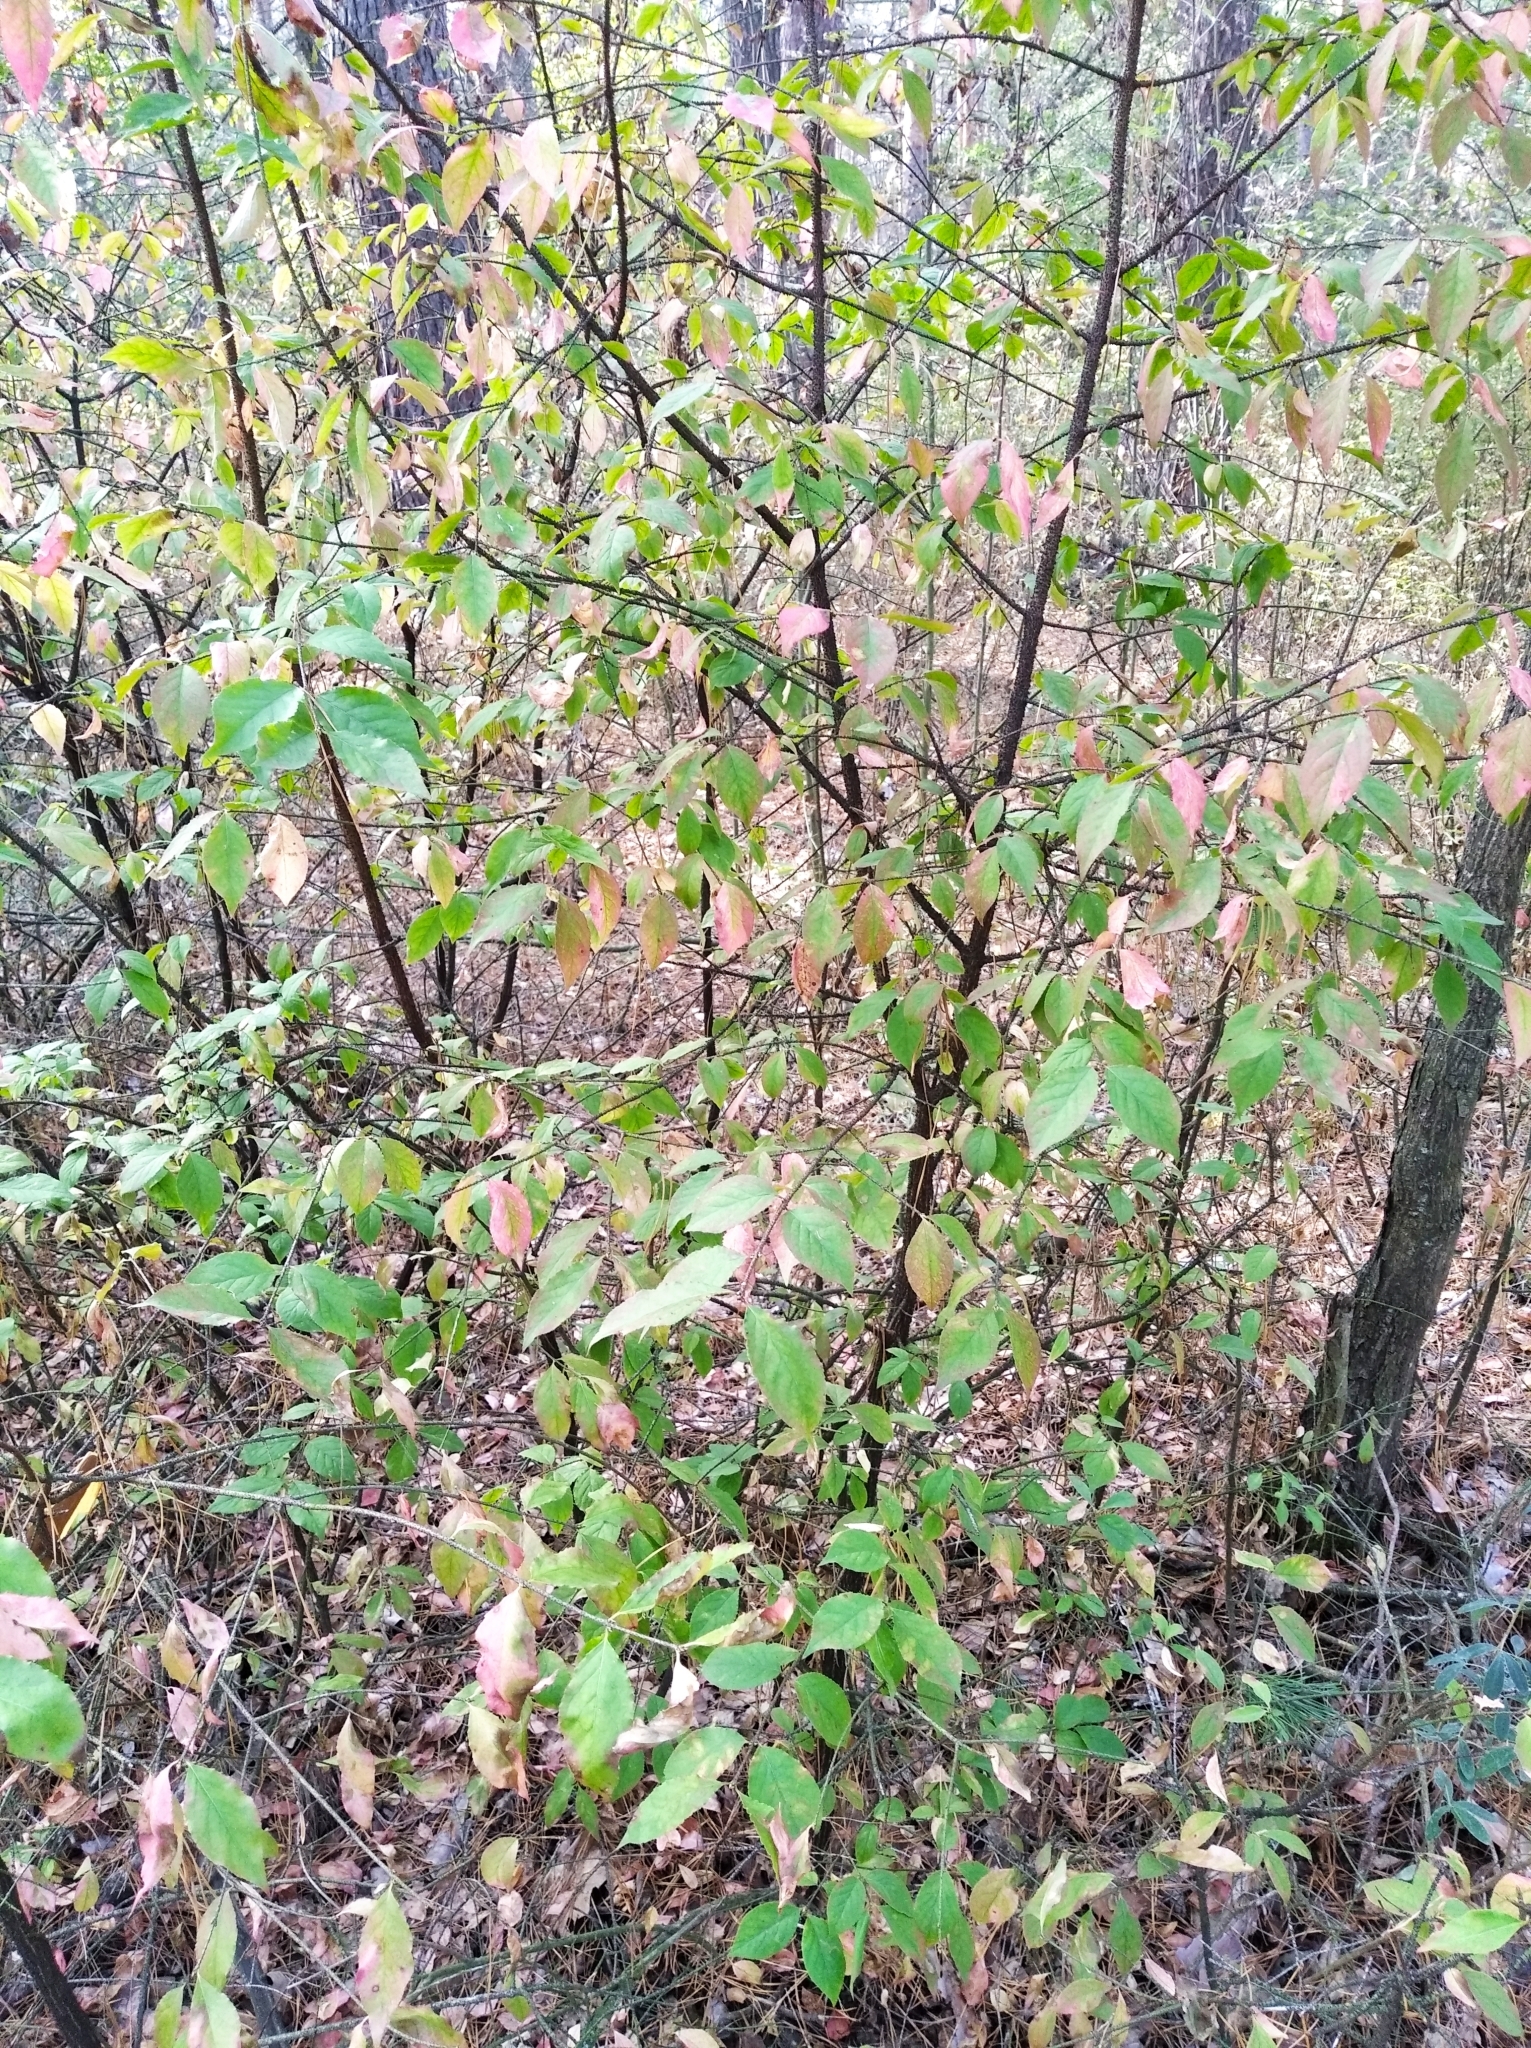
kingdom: Plantae
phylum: Tracheophyta
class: Magnoliopsida
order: Celastrales
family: Celastraceae
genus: Euonymus
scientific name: Euonymus verrucosus
